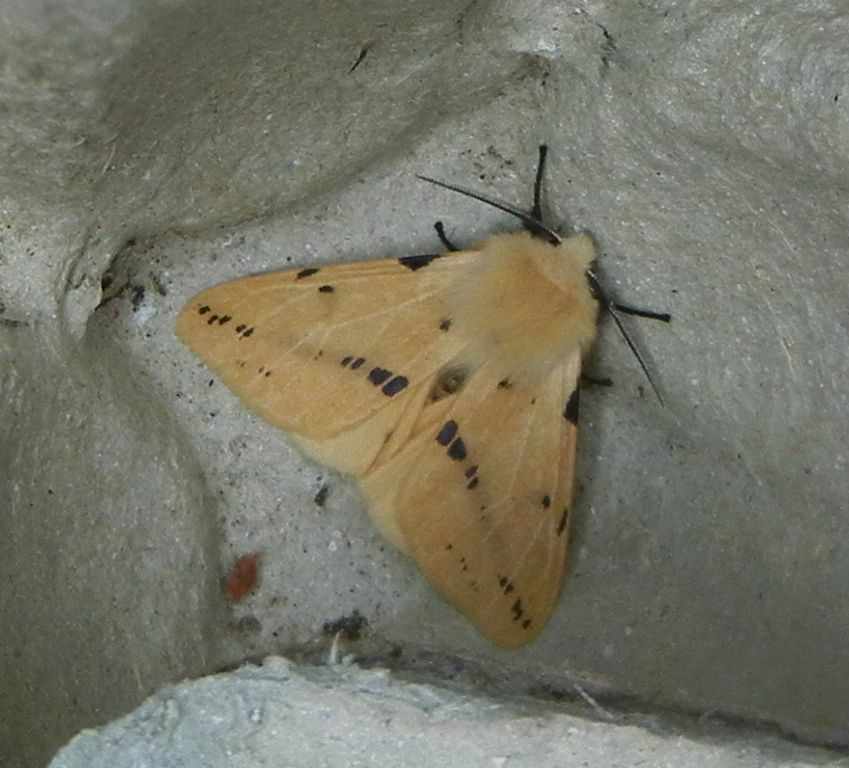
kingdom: Animalia
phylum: Arthropoda
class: Insecta
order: Lepidoptera
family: Erebidae
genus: Spilarctia
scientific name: Spilarctia lutea
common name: Buff ermine
